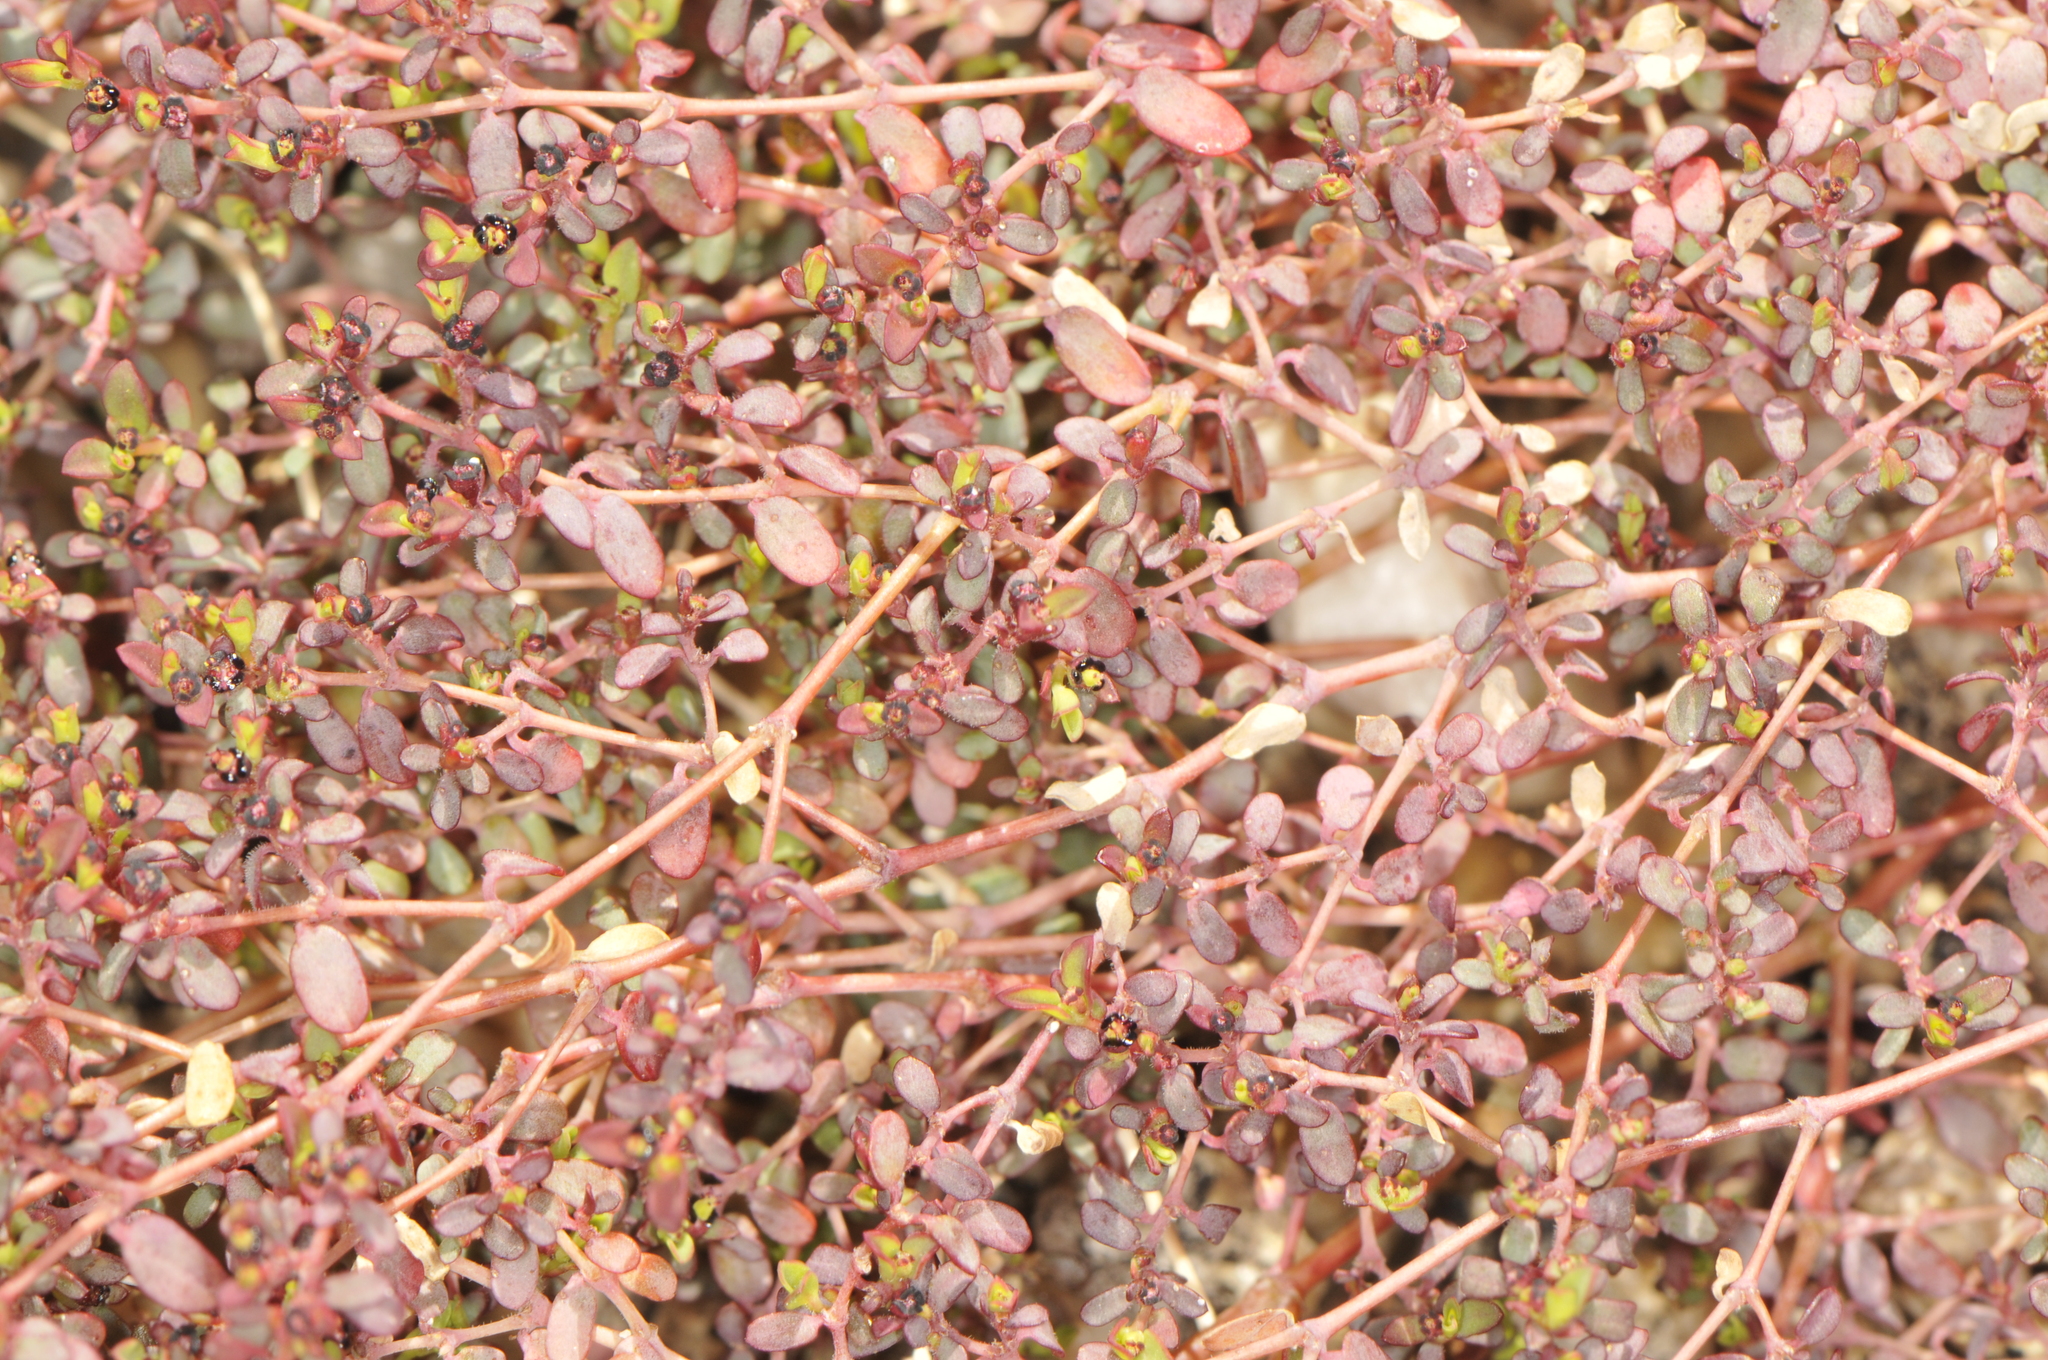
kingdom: Plantae
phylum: Tracheophyta
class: Magnoliopsida
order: Malpighiales
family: Euphorbiaceae
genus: Euphorbia
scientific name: Euphorbia polycarpa
